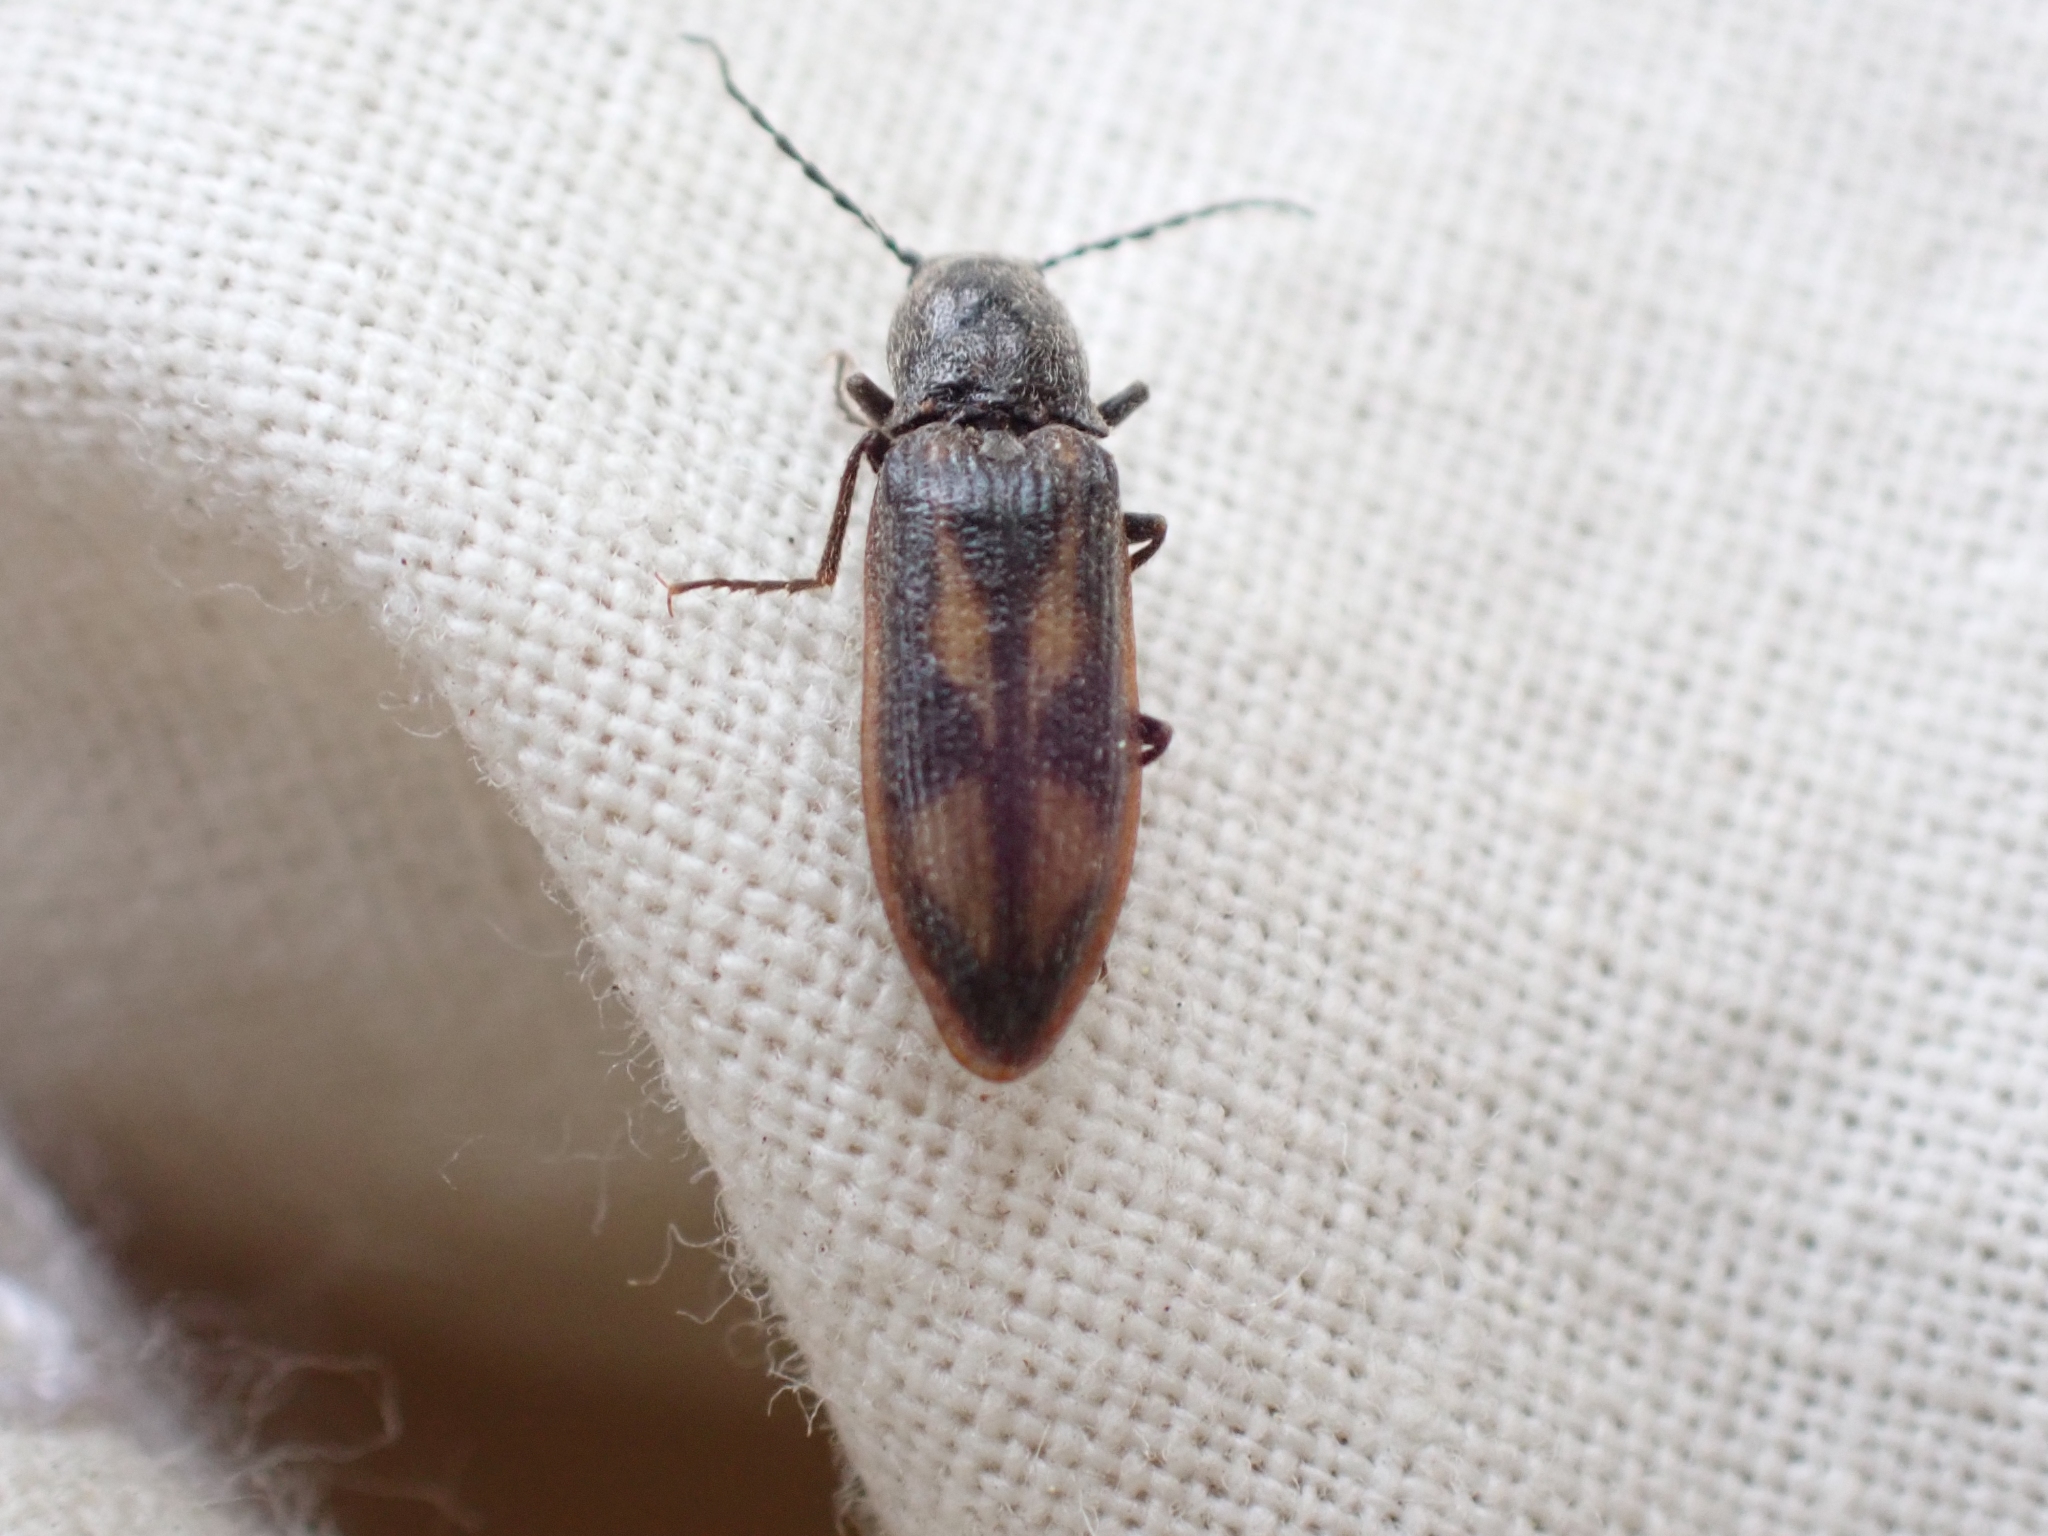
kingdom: Animalia
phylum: Arthropoda
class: Insecta
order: Coleoptera
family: Elateridae
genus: Liotrichus
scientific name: Liotrichus umbripennis
